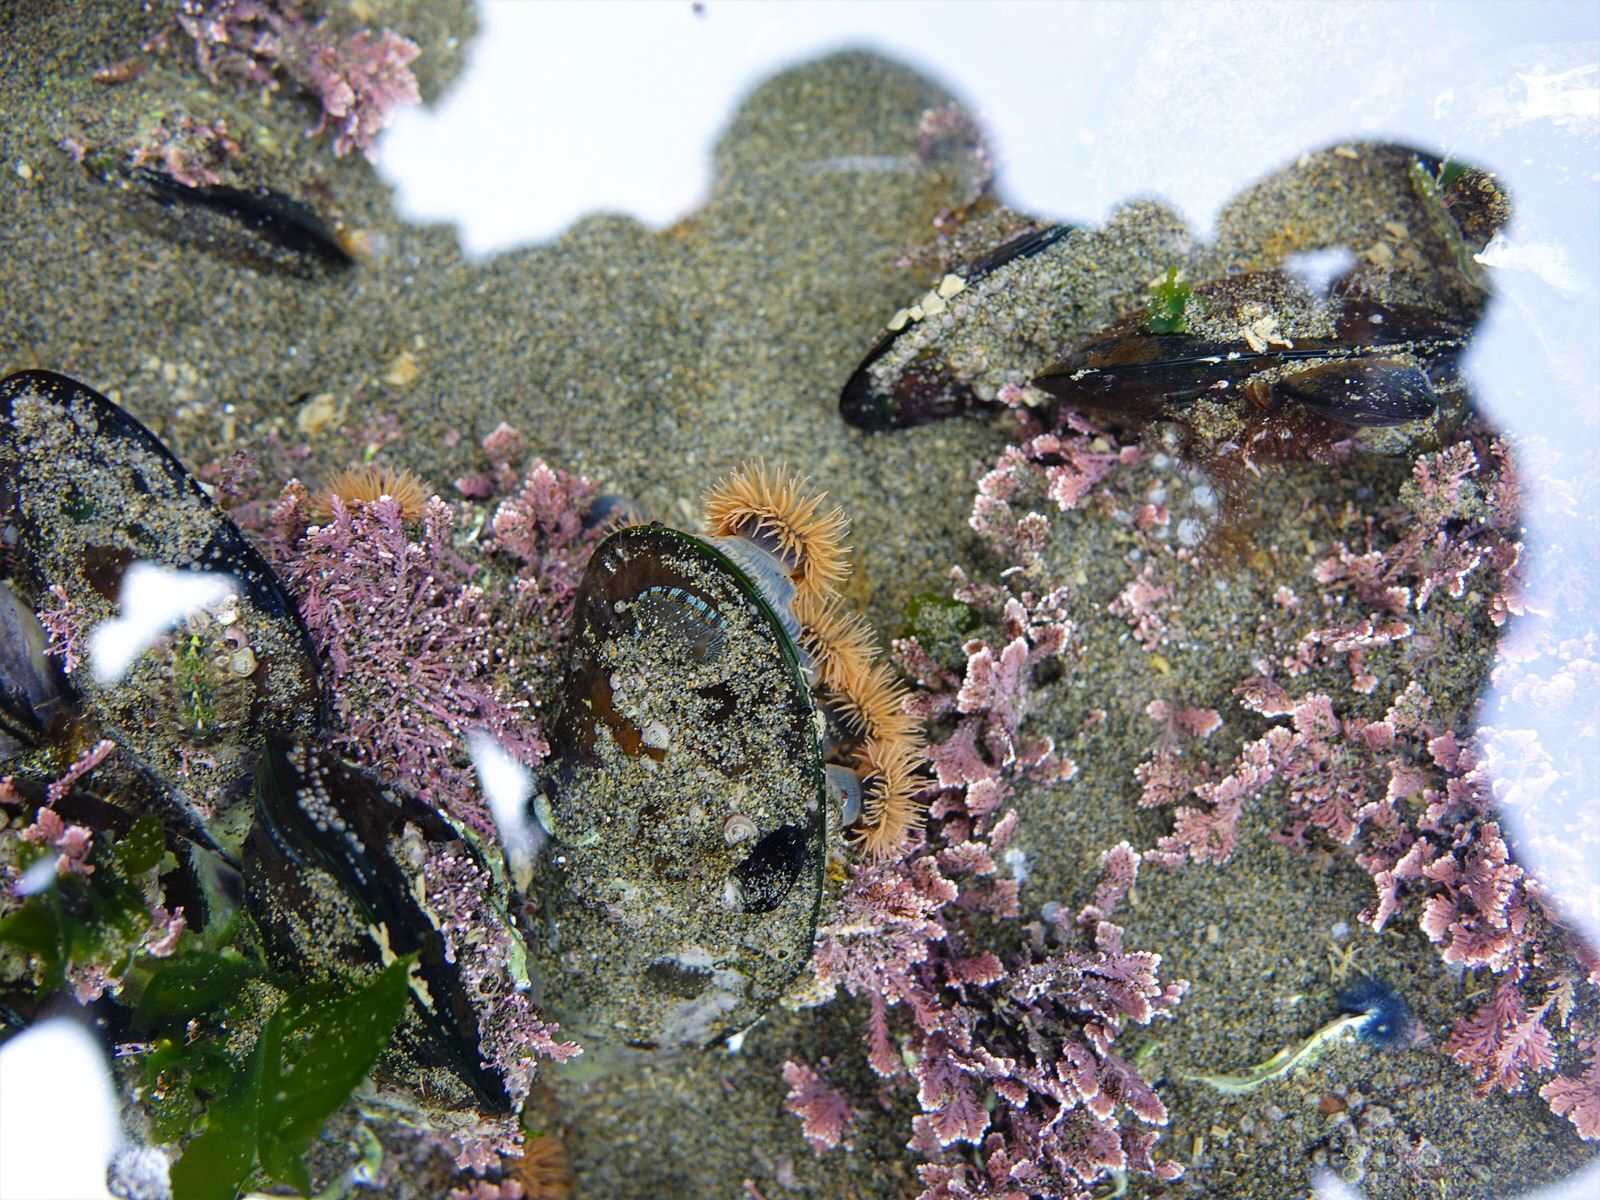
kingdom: Animalia
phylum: Mollusca
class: Polyplacophora
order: Chitonida
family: Chitonidae
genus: Sypharochiton
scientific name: Sypharochiton sinclairi
